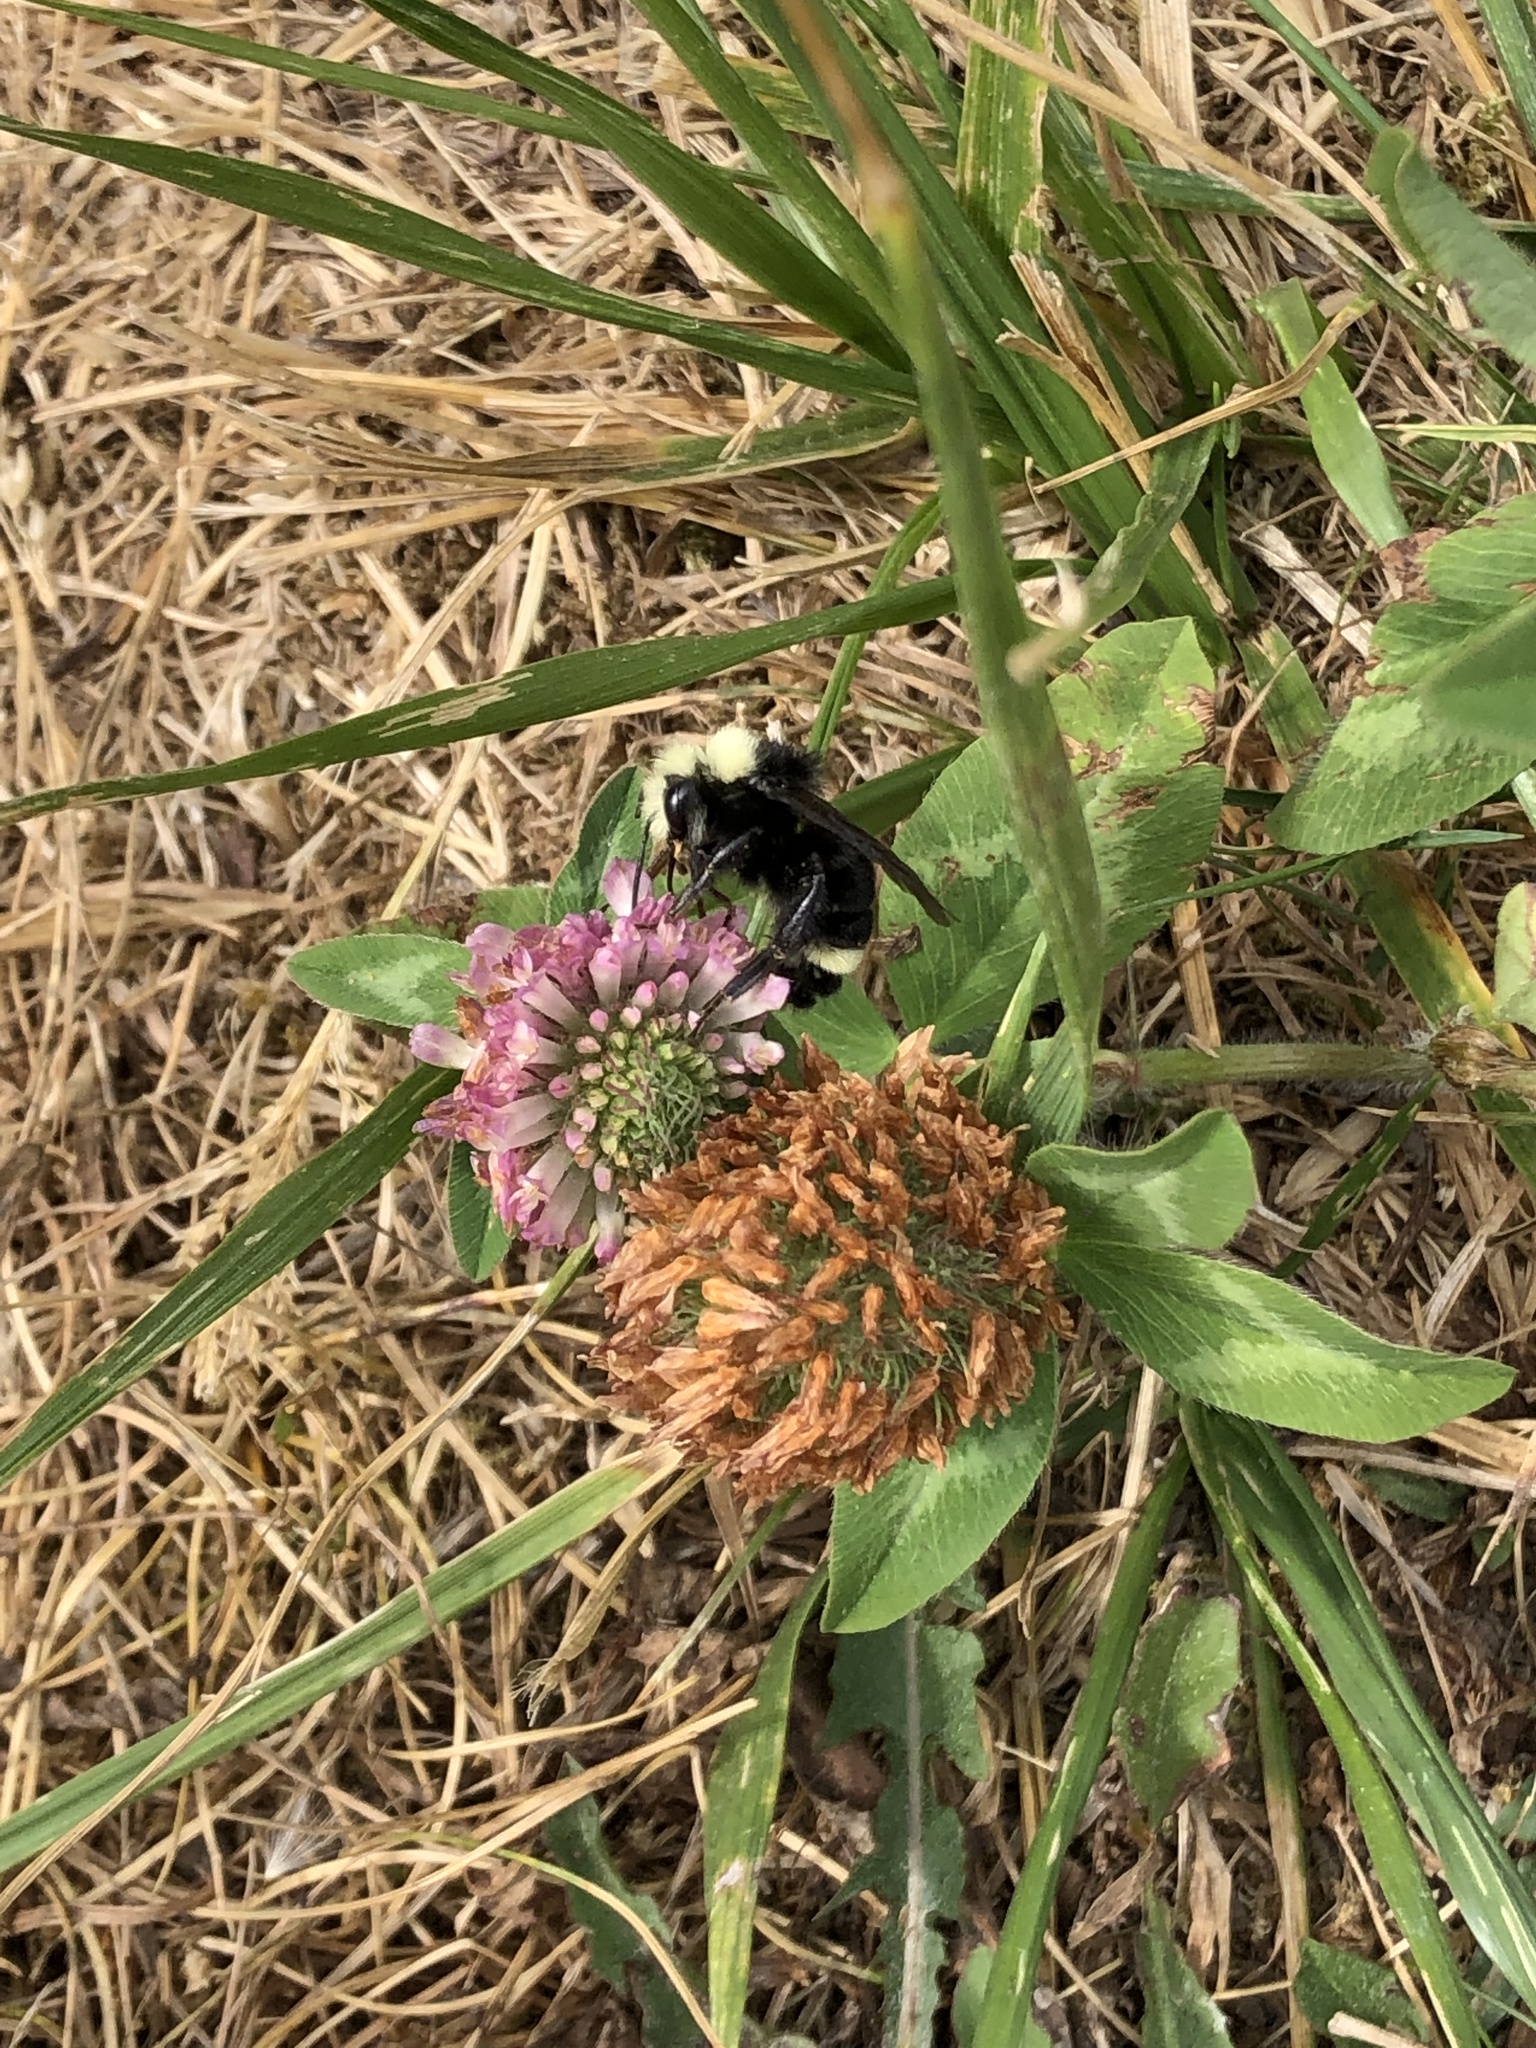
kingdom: Animalia
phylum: Arthropoda
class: Insecta
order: Hymenoptera
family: Apidae
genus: Bombus
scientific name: Bombus vosnesenskii
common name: Vosnesensky bumble bee
